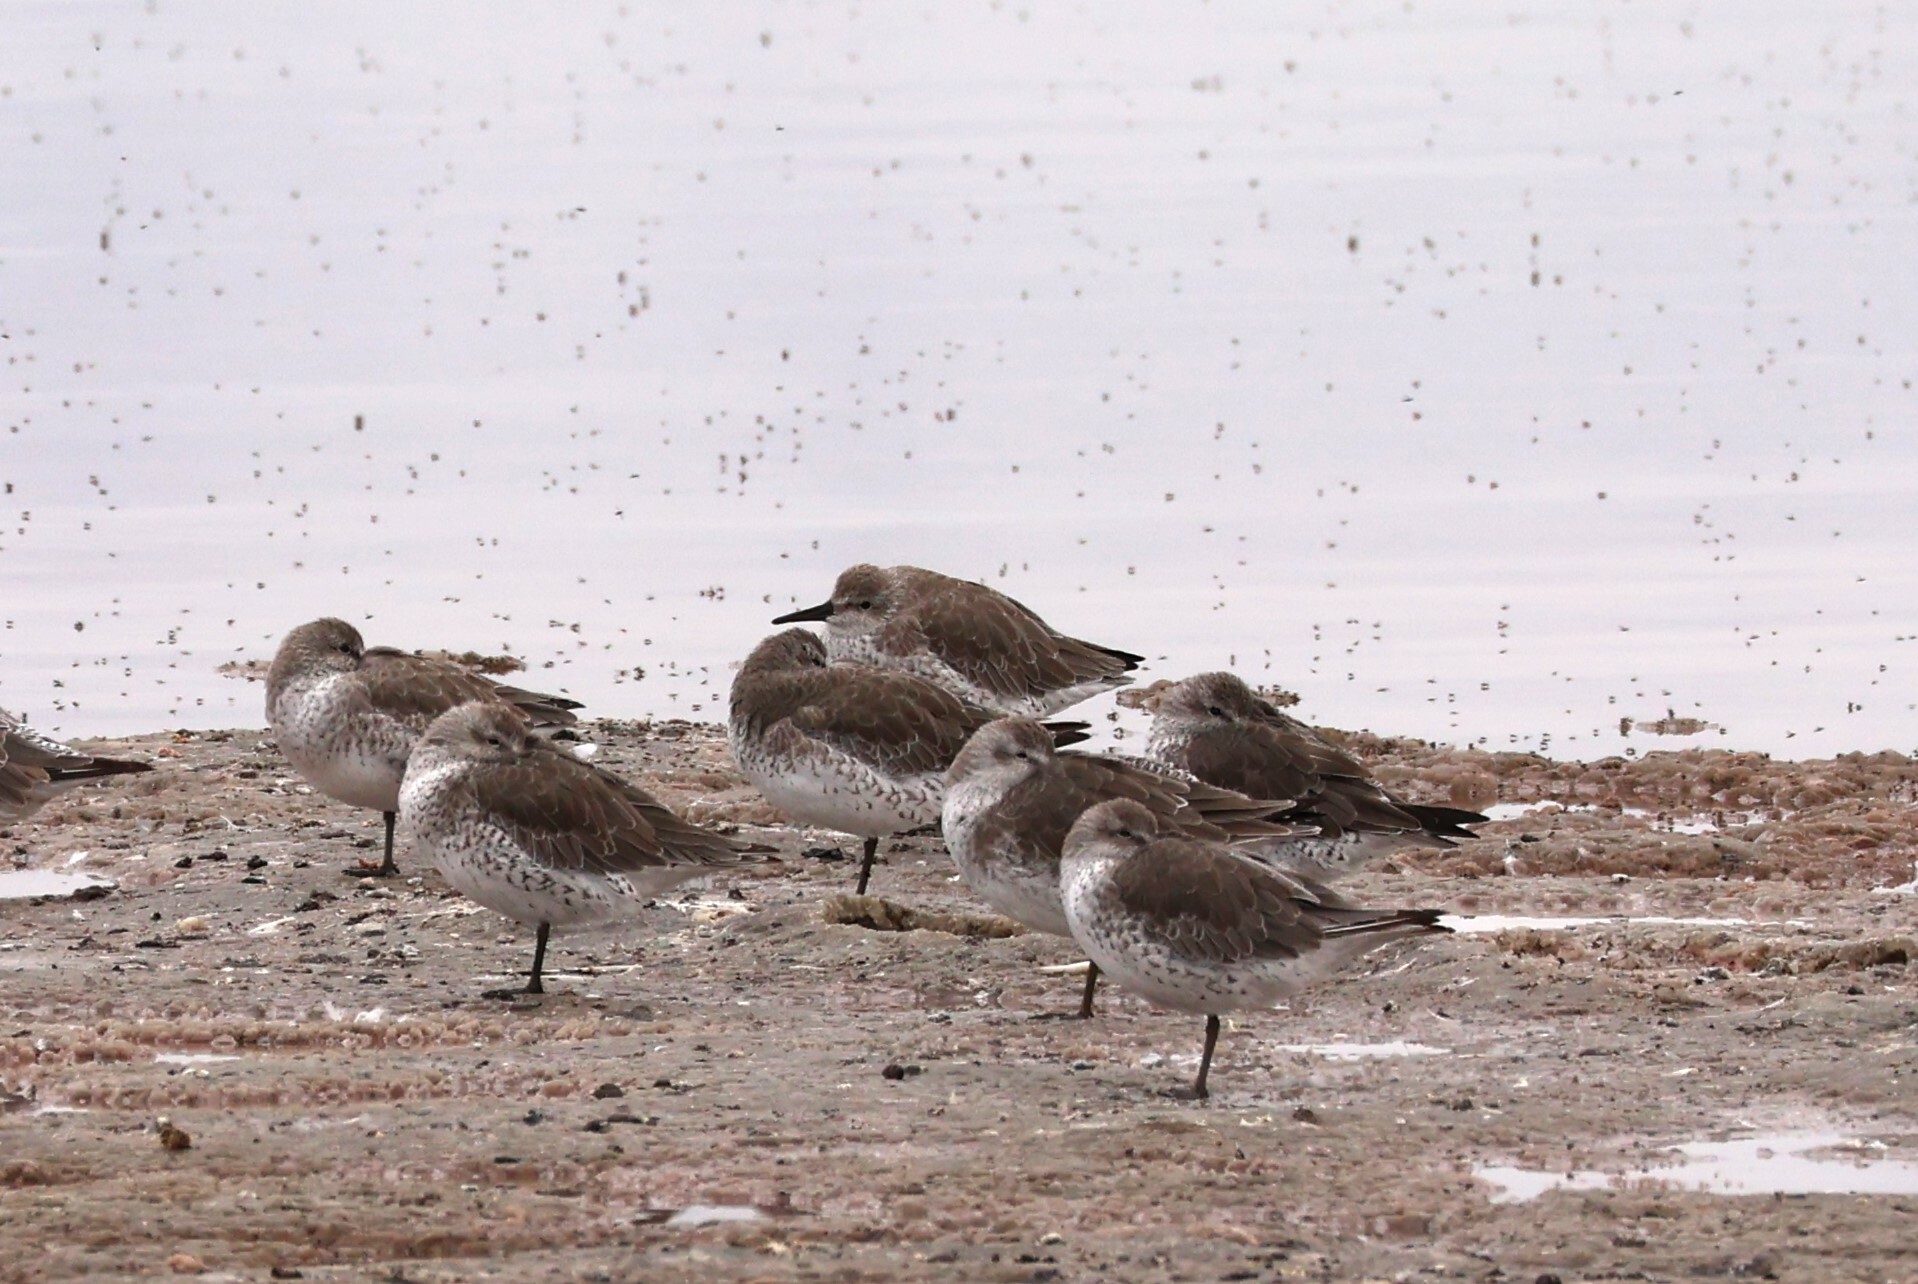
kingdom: Animalia
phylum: Chordata
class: Aves
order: Charadriiformes
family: Scolopacidae
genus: Calidris
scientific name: Calidris canutus
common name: Red knot
